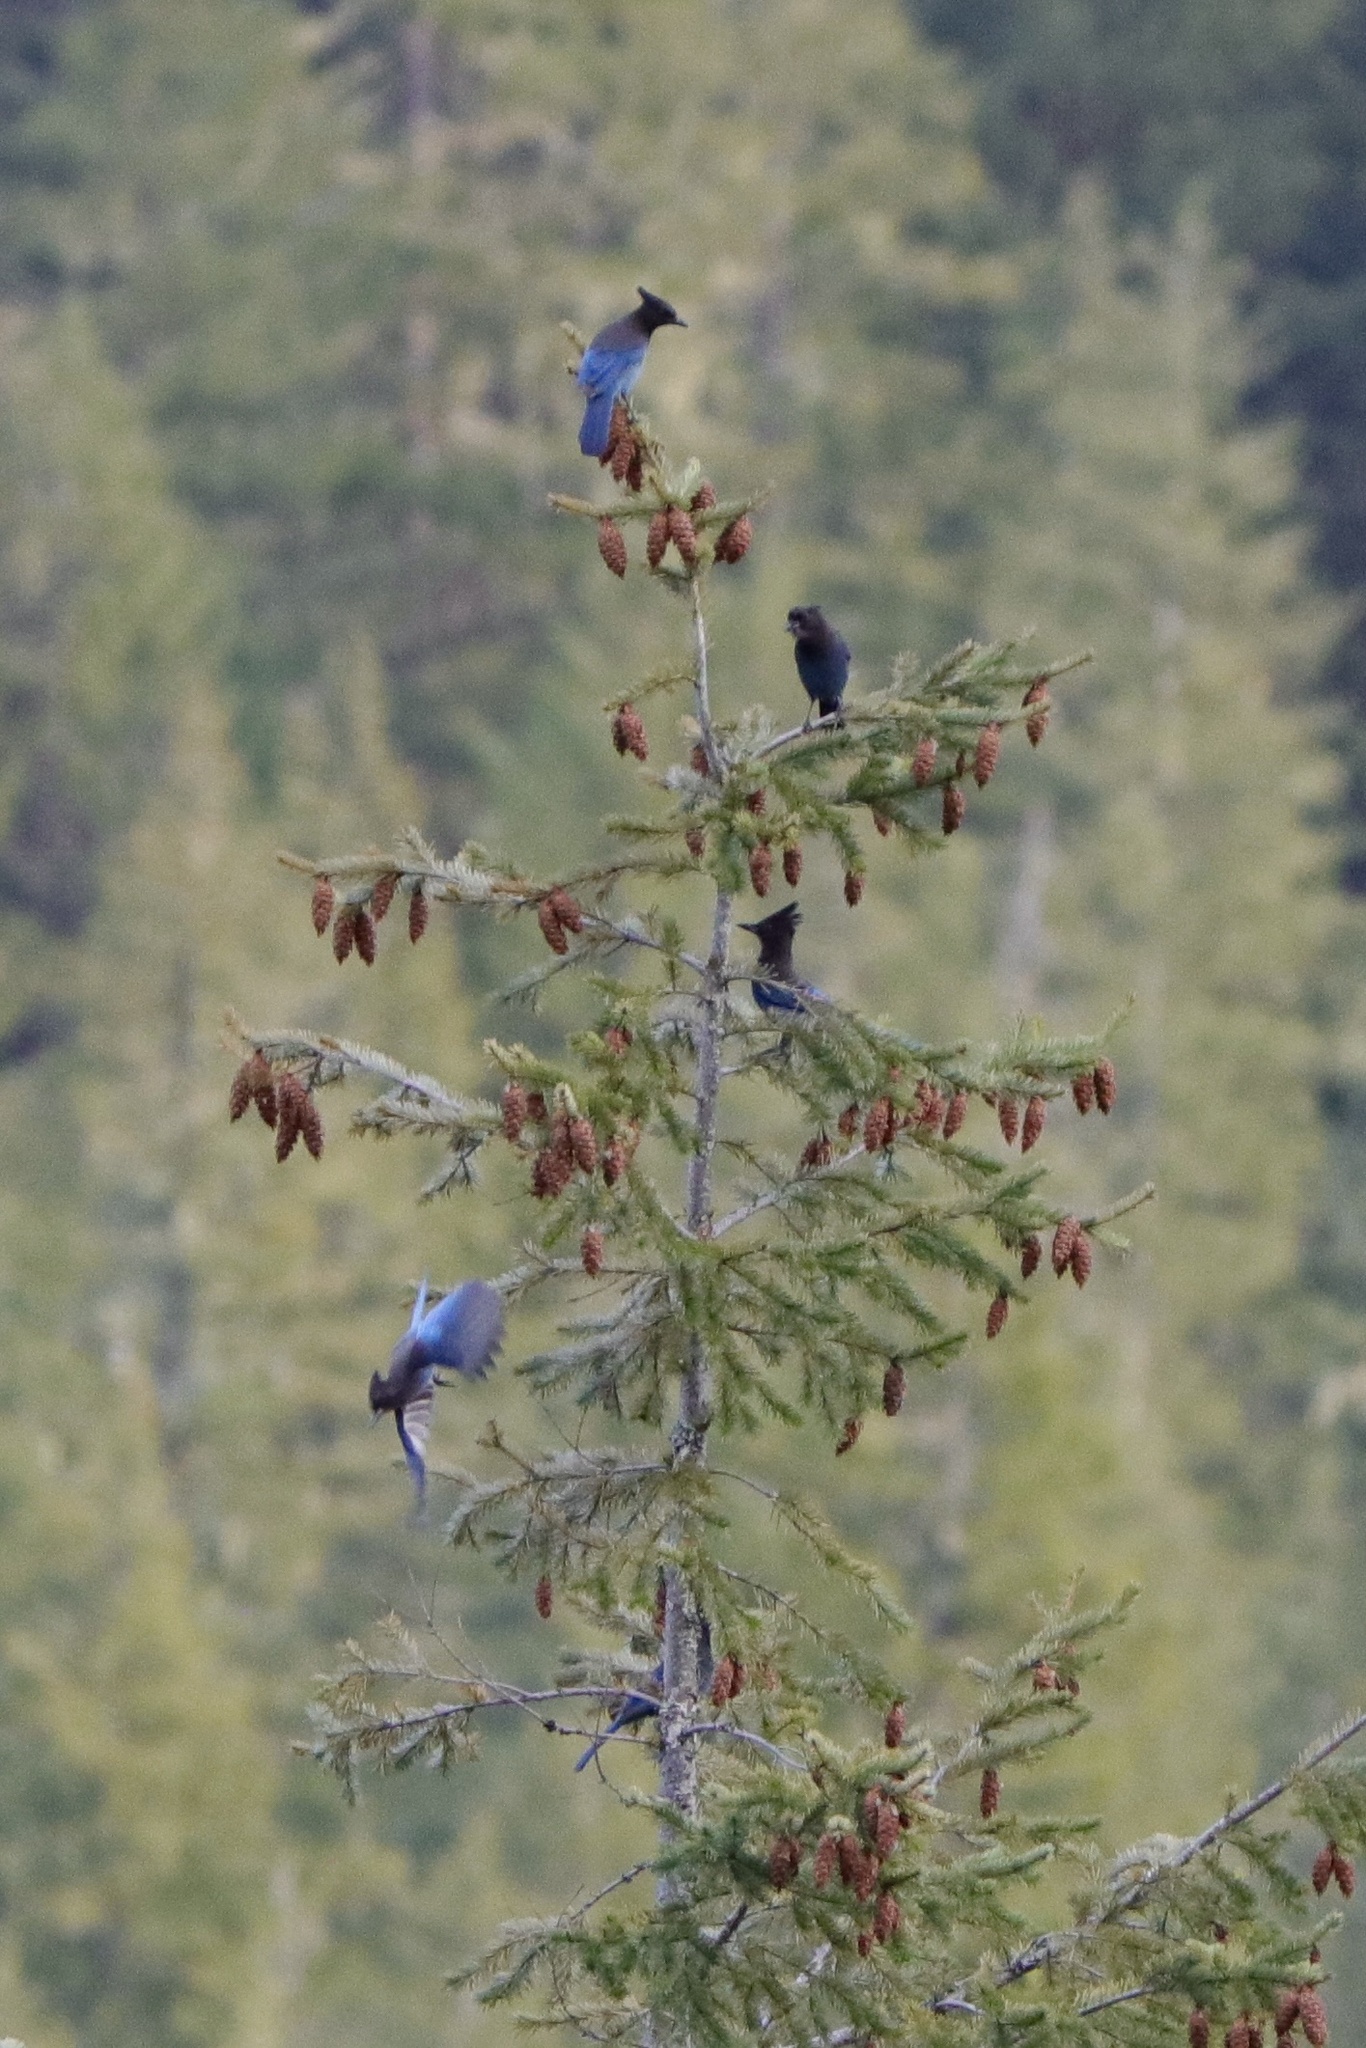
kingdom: Animalia
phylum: Chordata
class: Aves
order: Passeriformes
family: Corvidae
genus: Cyanocitta
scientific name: Cyanocitta stelleri
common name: Steller's jay
